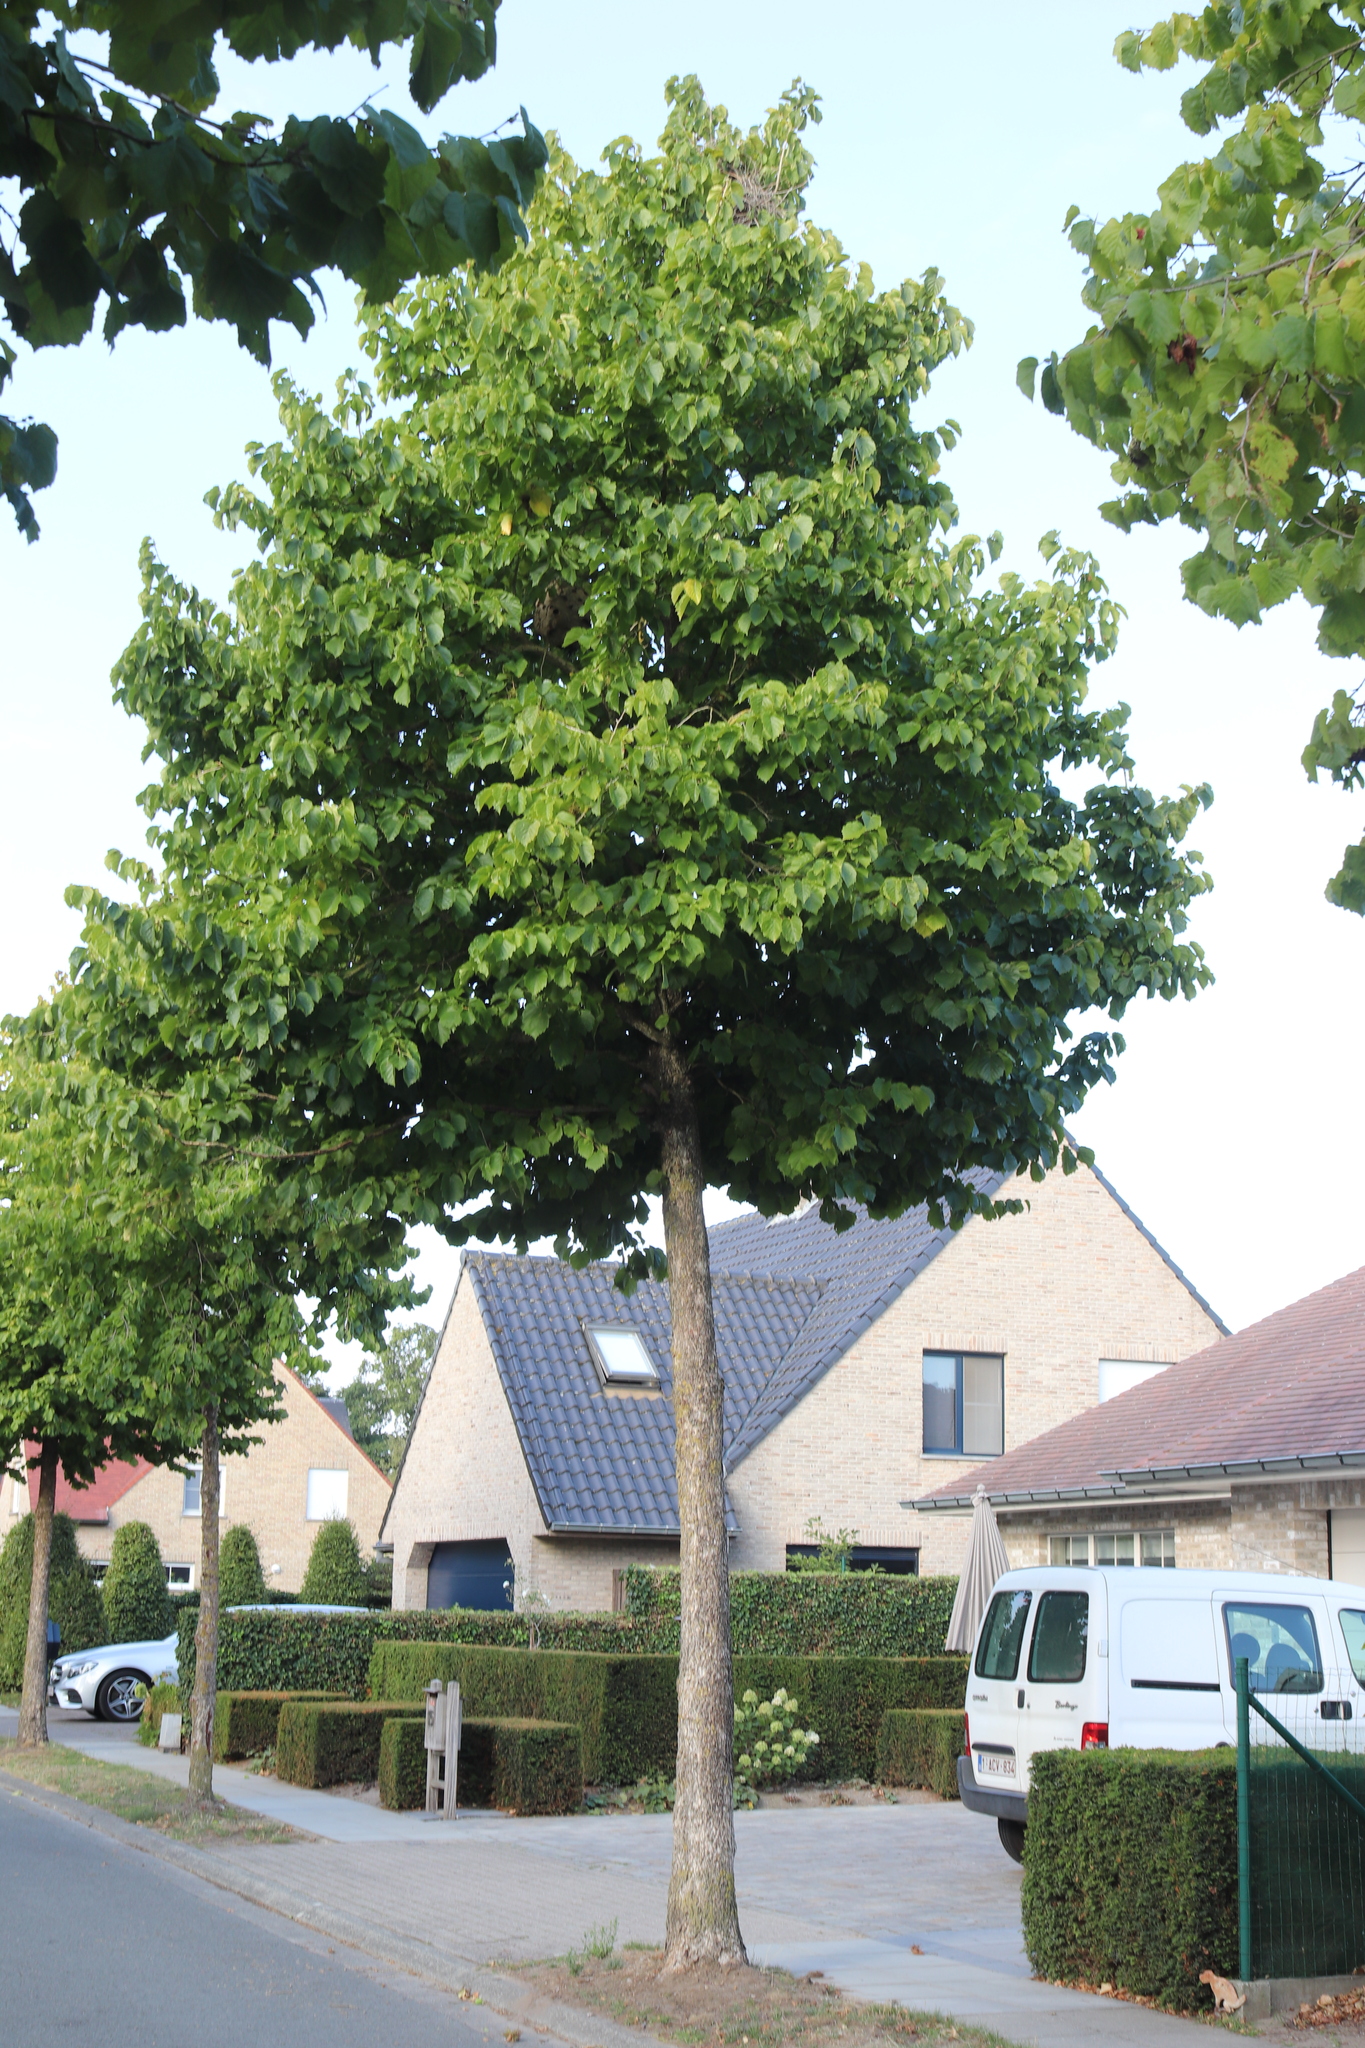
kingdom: Animalia
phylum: Arthropoda
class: Insecta
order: Hymenoptera
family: Vespidae
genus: Vespa
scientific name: Vespa velutina
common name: Asian hornet
